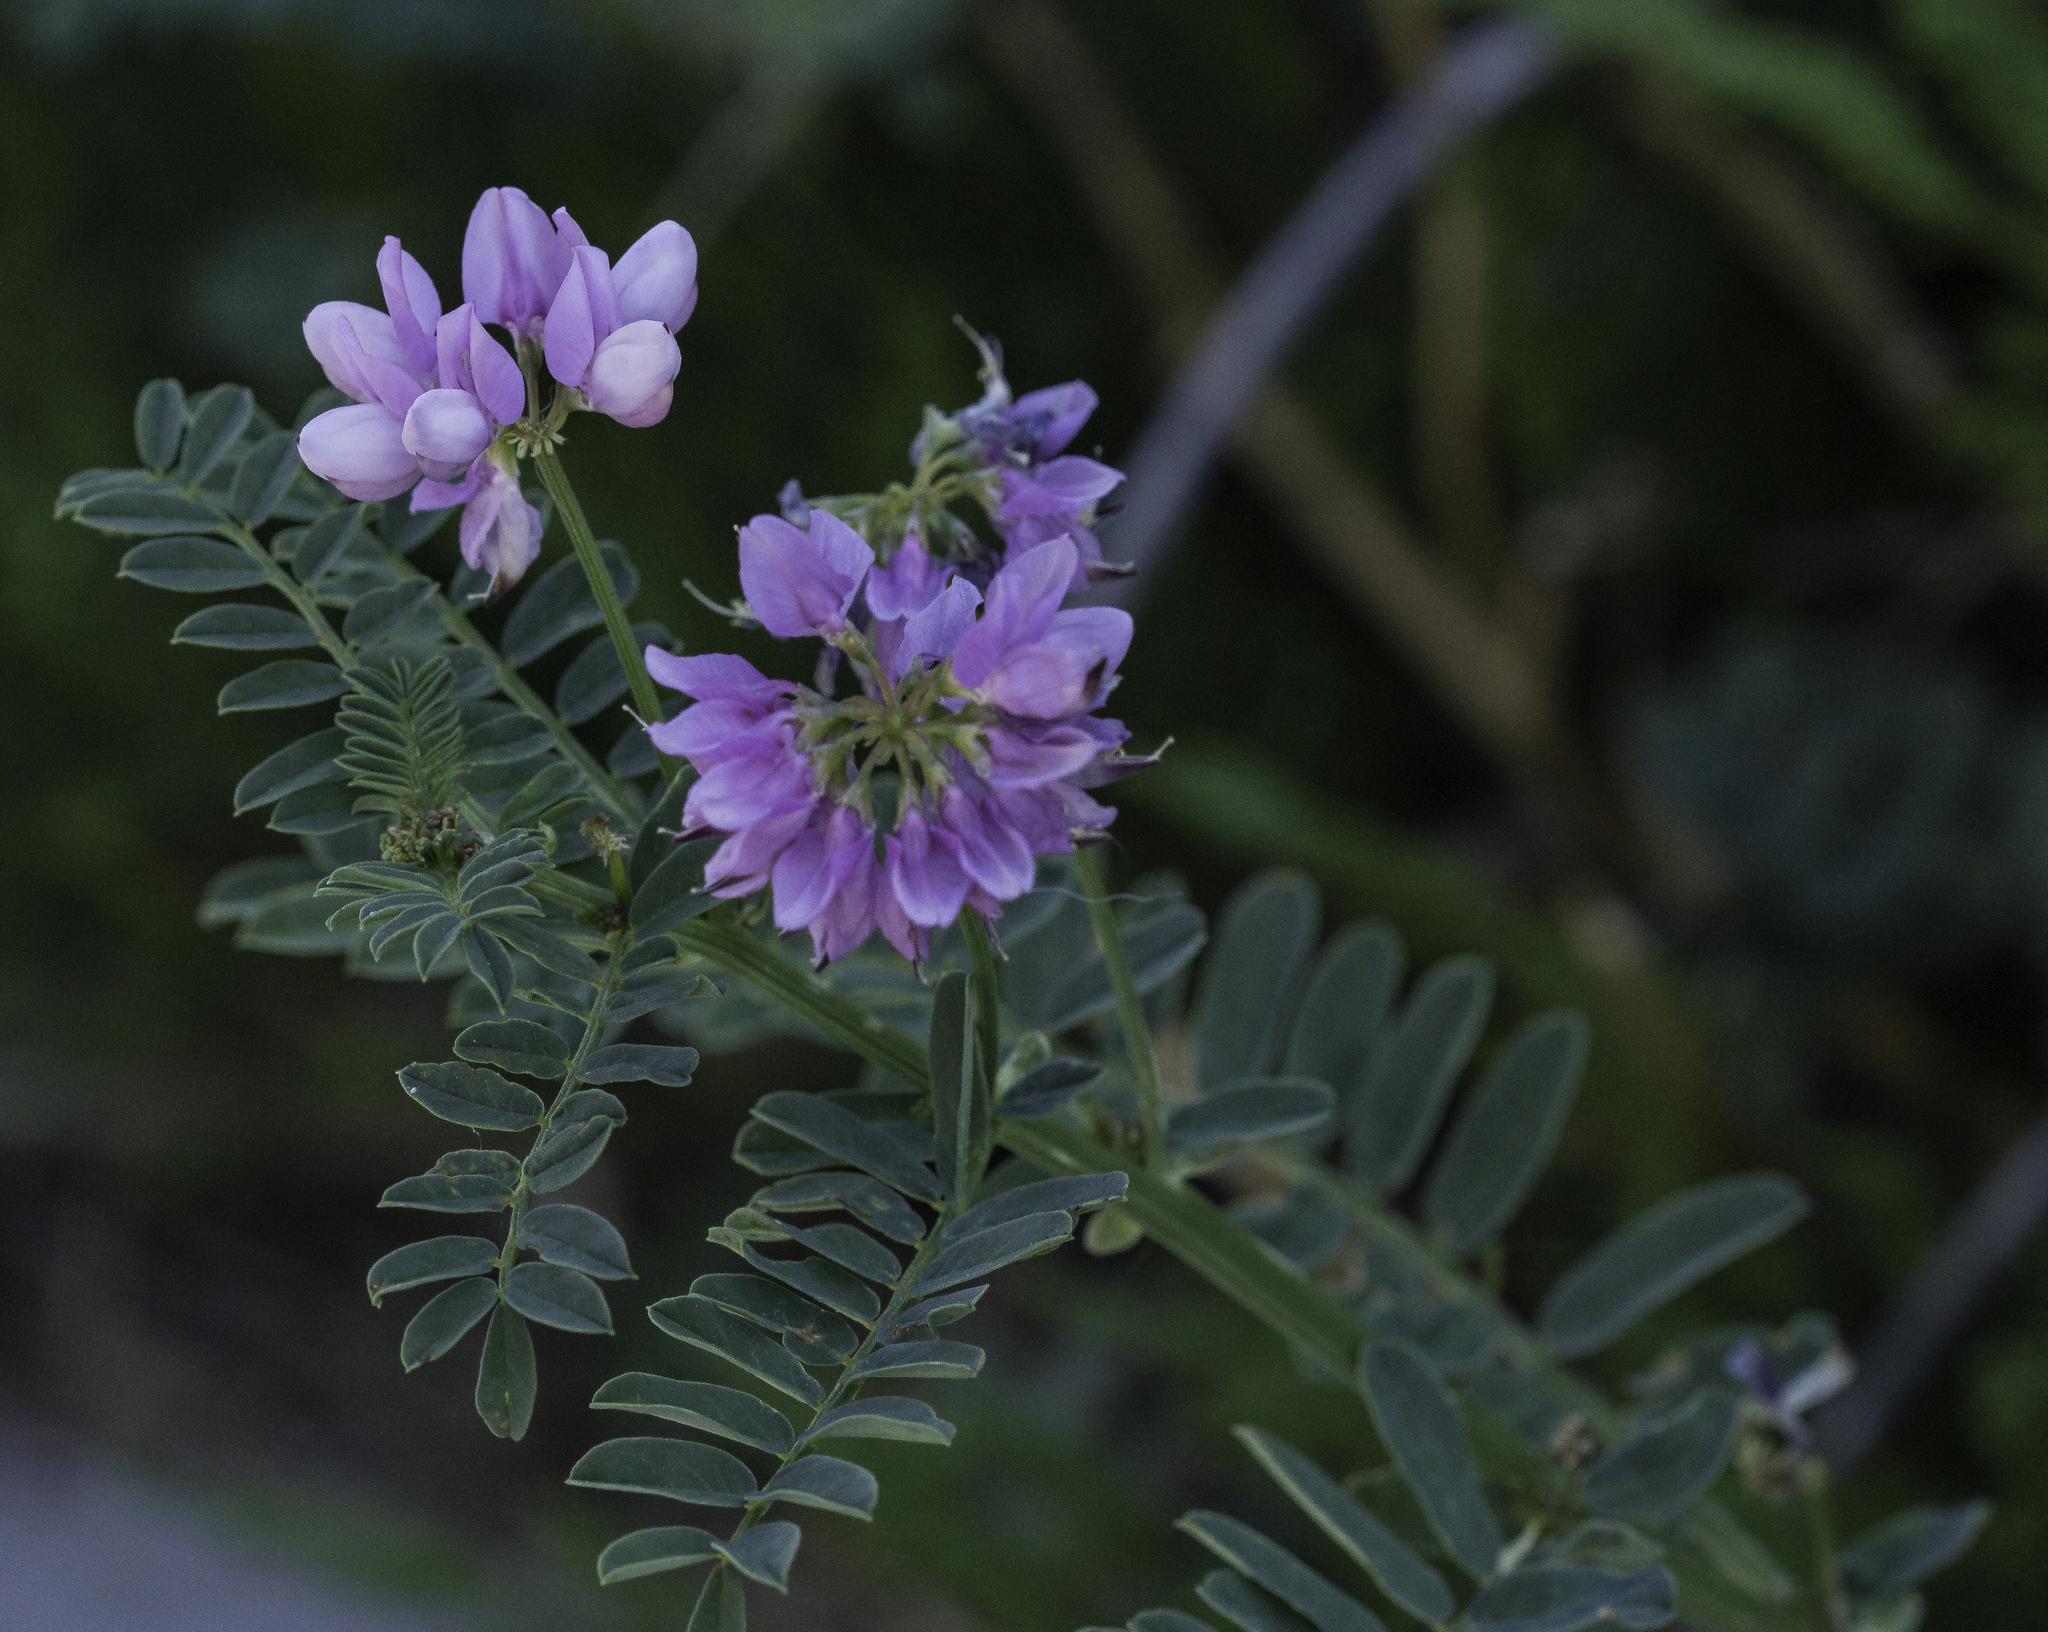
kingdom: Plantae
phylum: Tracheophyta
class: Magnoliopsida
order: Fabales
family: Fabaceae
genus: Coronilla
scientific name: Coronilla varia
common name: Crownvetch
